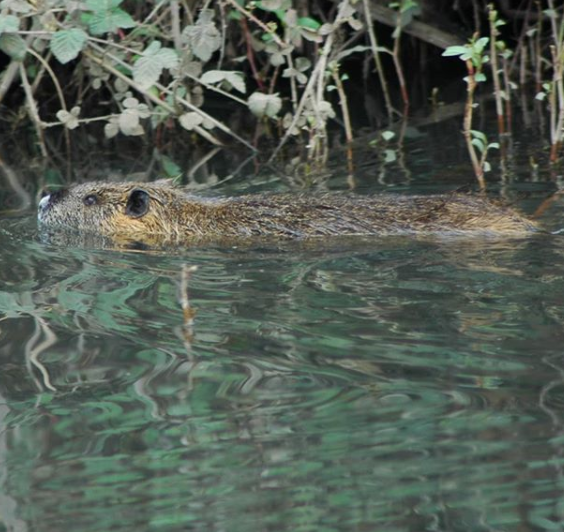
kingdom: Animalia
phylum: Chordata
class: Mammalia
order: Rodentia
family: Myocastoridae
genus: Myocastor
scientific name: Myocastor coypus
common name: Coypu
